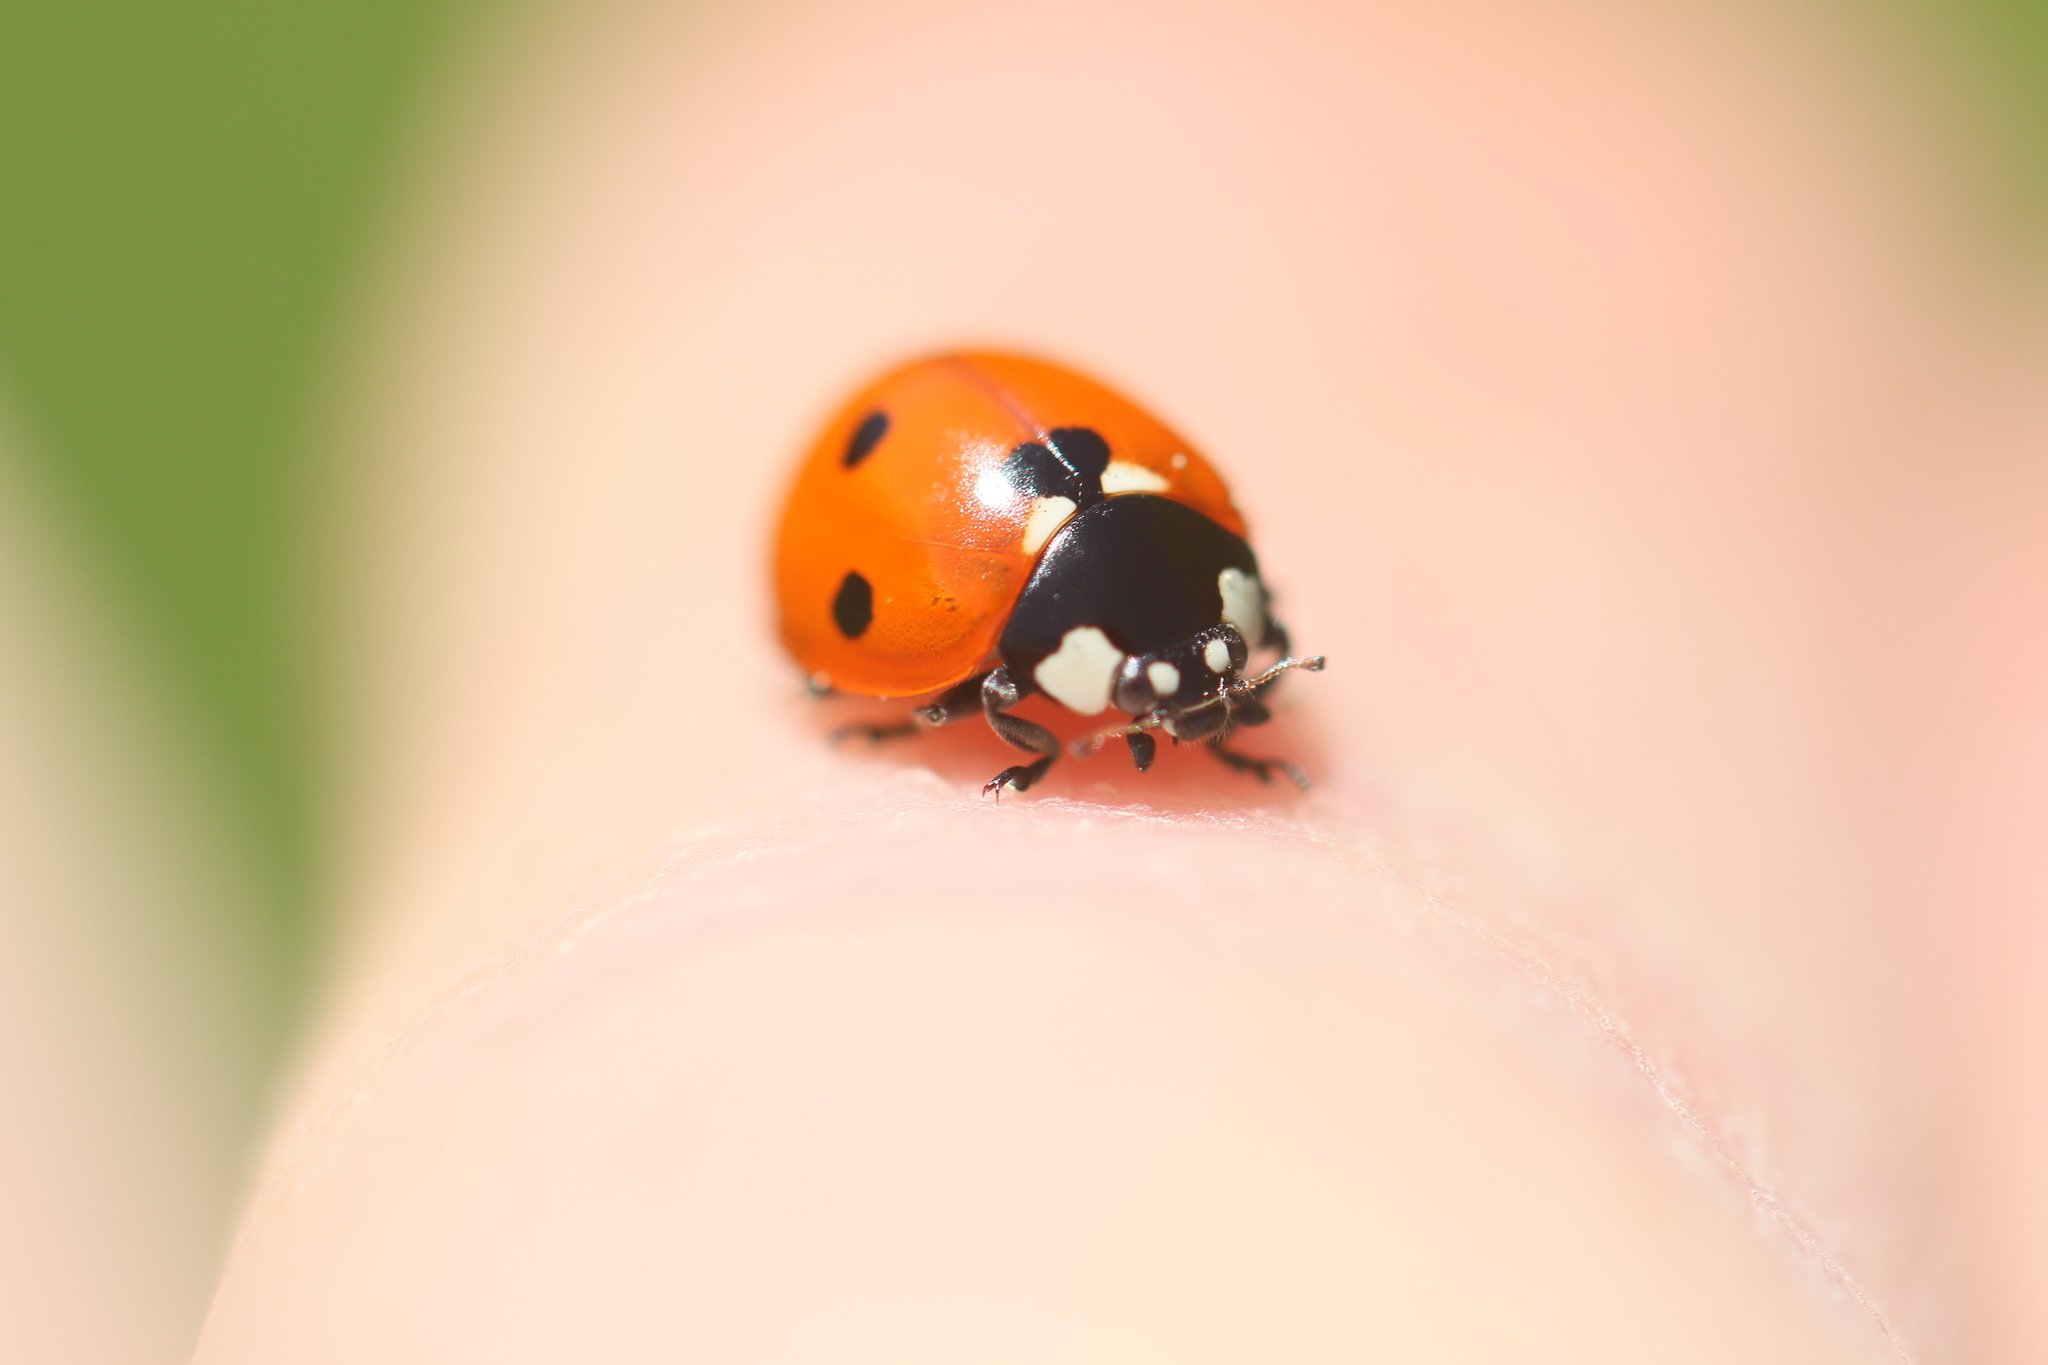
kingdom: Animalia
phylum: Arthropoda
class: Insecta
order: Coleoptera
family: Coccinellidae
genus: Coccinella
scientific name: Coccinella septempunctata
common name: Sevenspotted lady beetle
